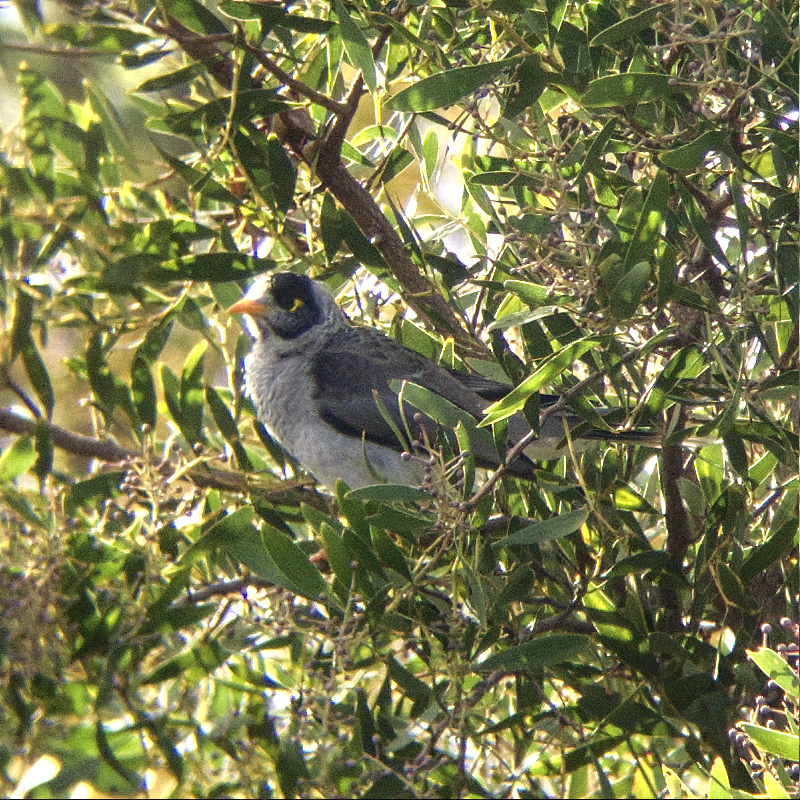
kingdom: Animalia
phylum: Chordata
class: Aves
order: Passeriformes
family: Meliphagidae
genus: Manorina
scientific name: Manorina melanocephala
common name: Noisy miner
